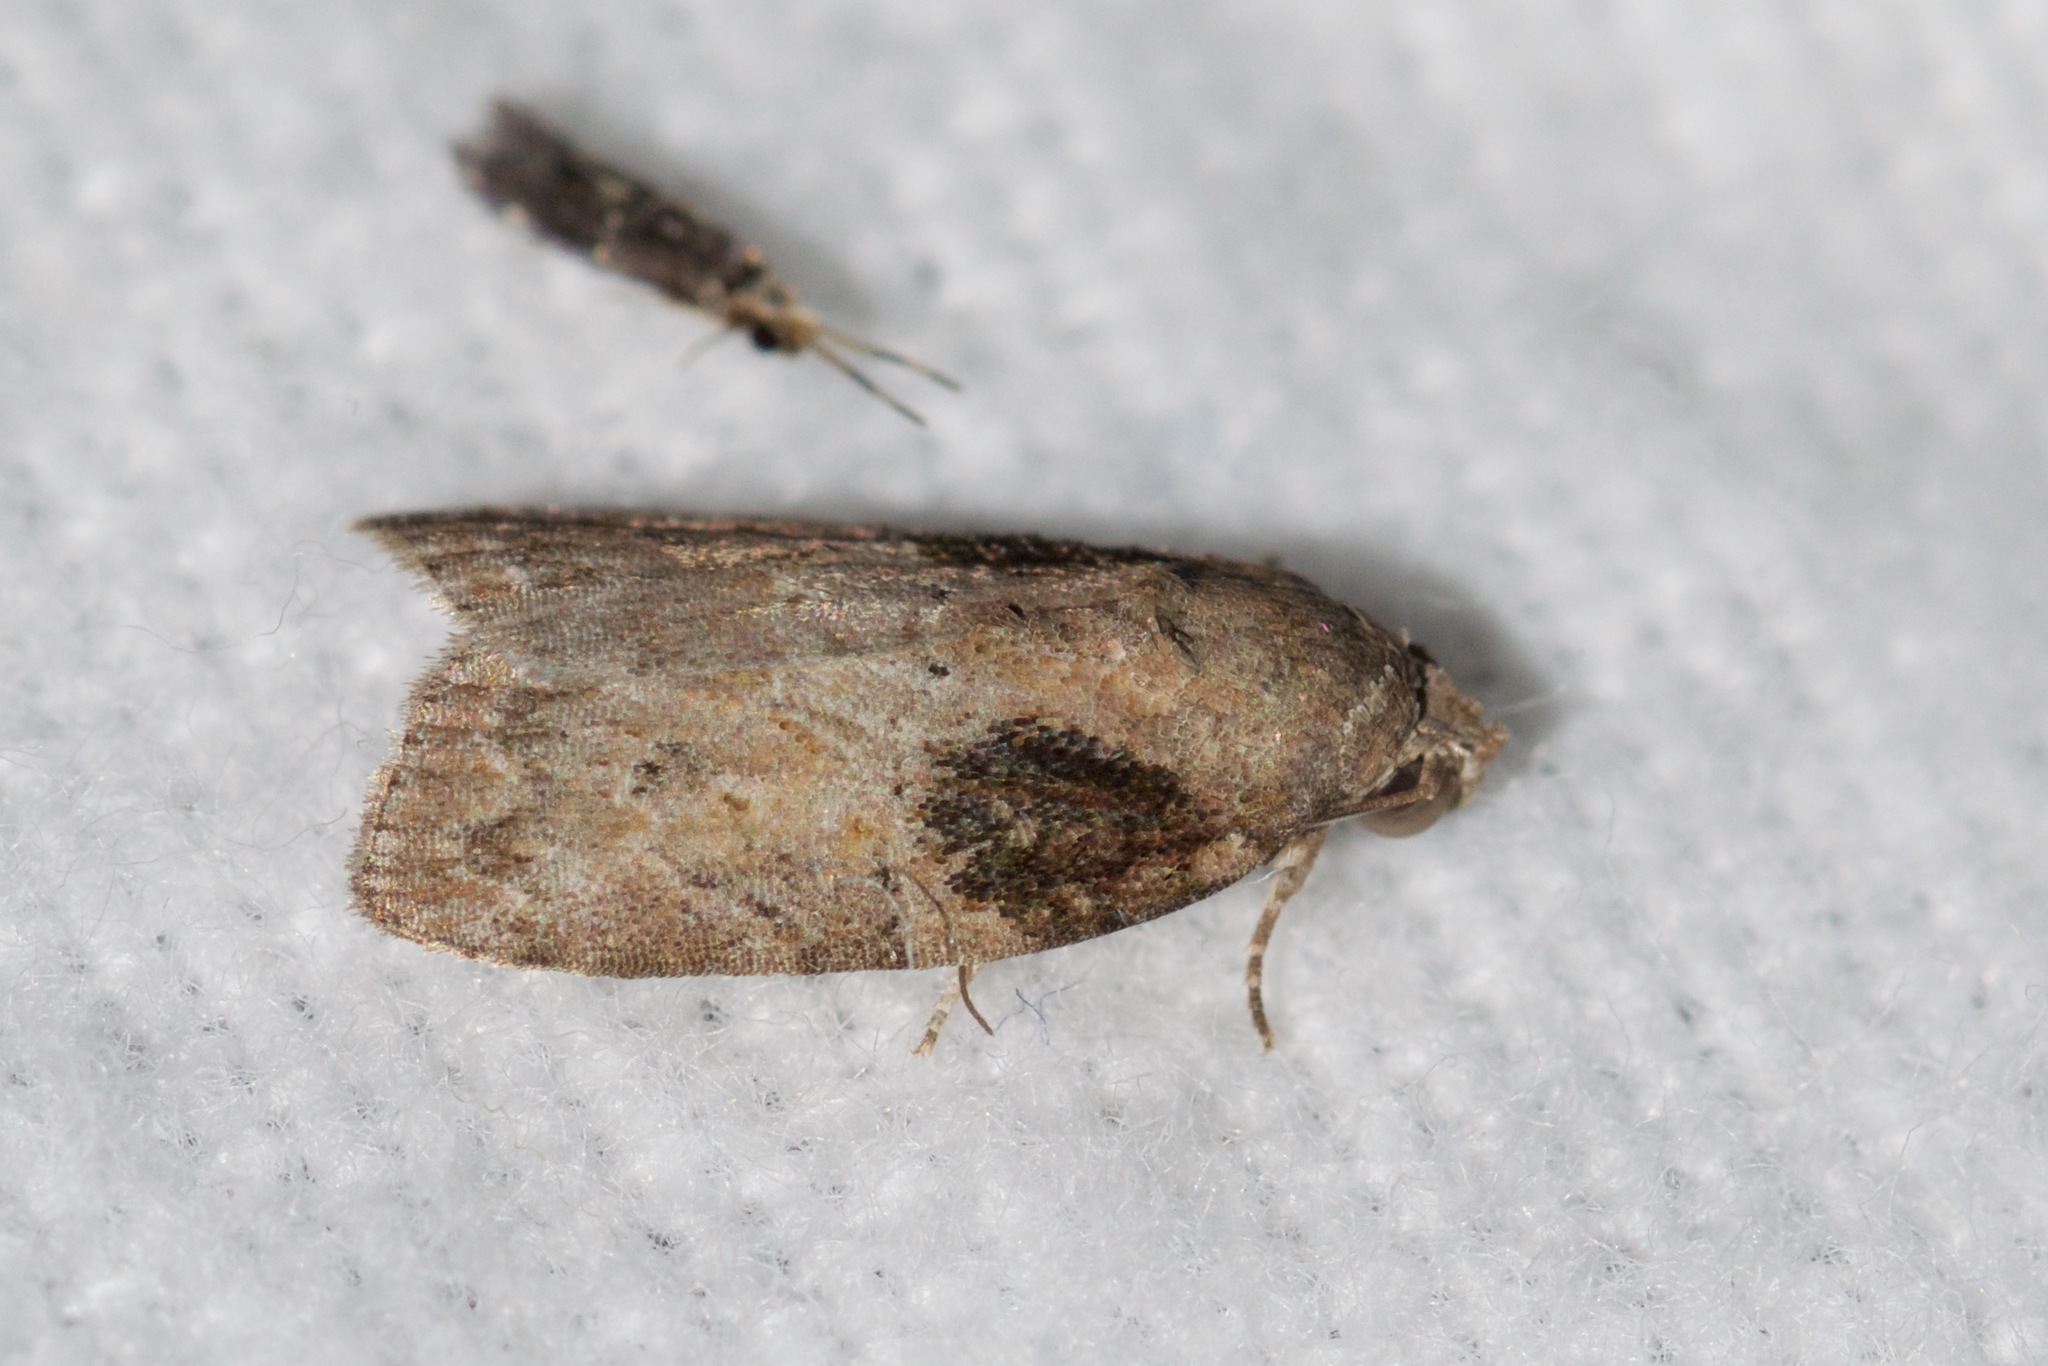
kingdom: Animalia
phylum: Arthropoda
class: Insecta
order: Lepidoptera
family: Nolidae
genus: Garella
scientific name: Garella nilotica
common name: Black-olive caterpillar moth
